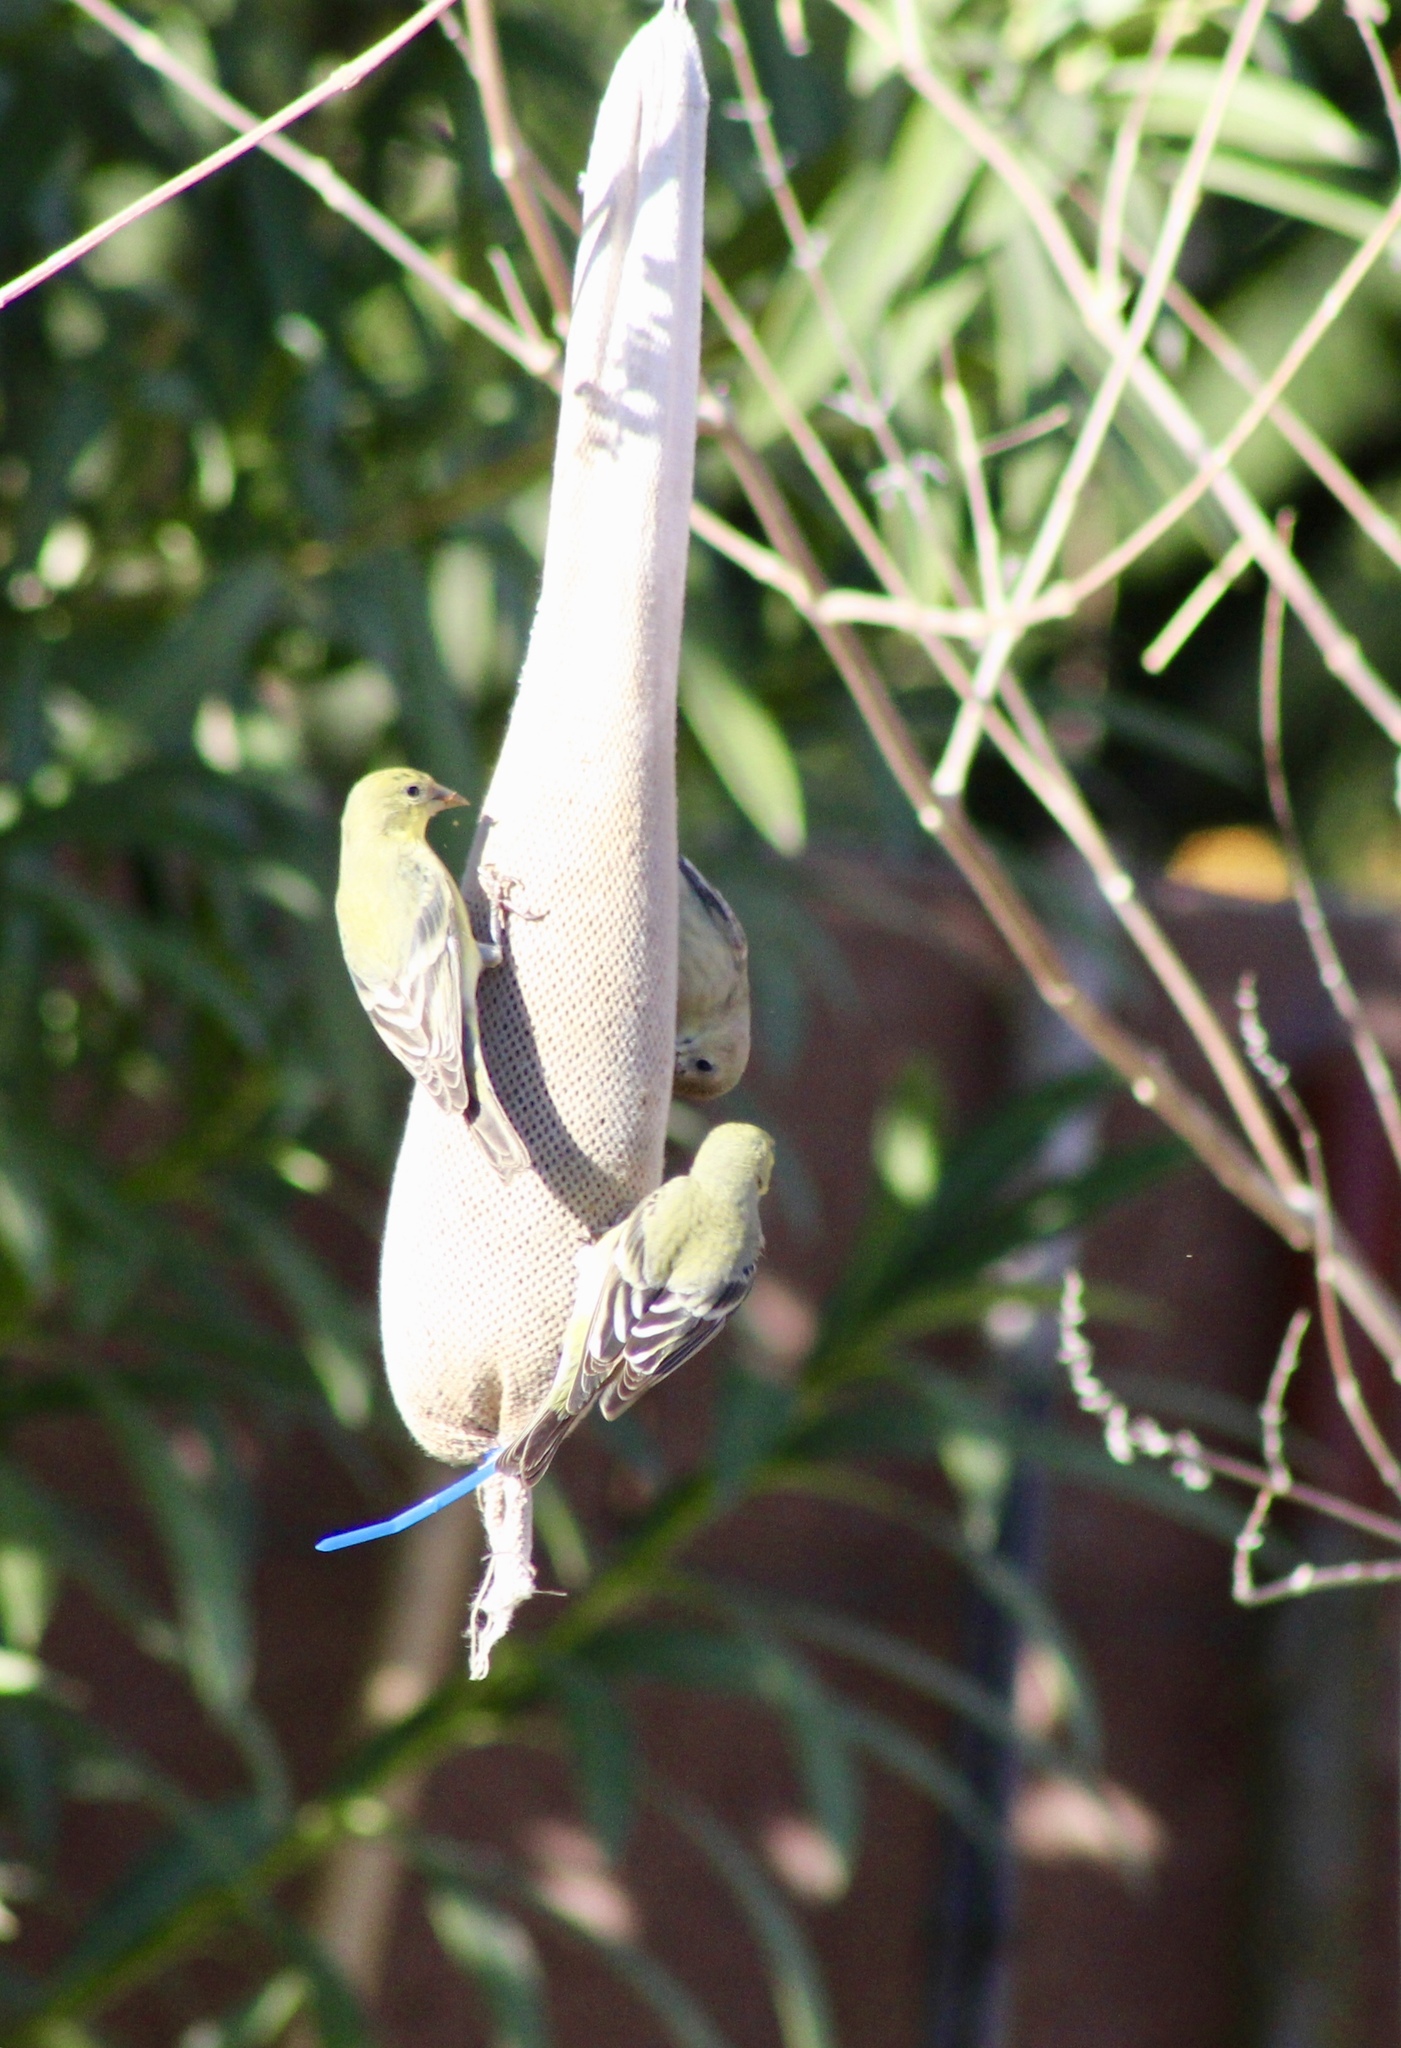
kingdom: Animalia
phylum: Chordata
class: Aves
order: Passeriformes
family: Fringillidae
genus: Spinus
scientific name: Spinus psaltria
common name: Lesser goldfinch
